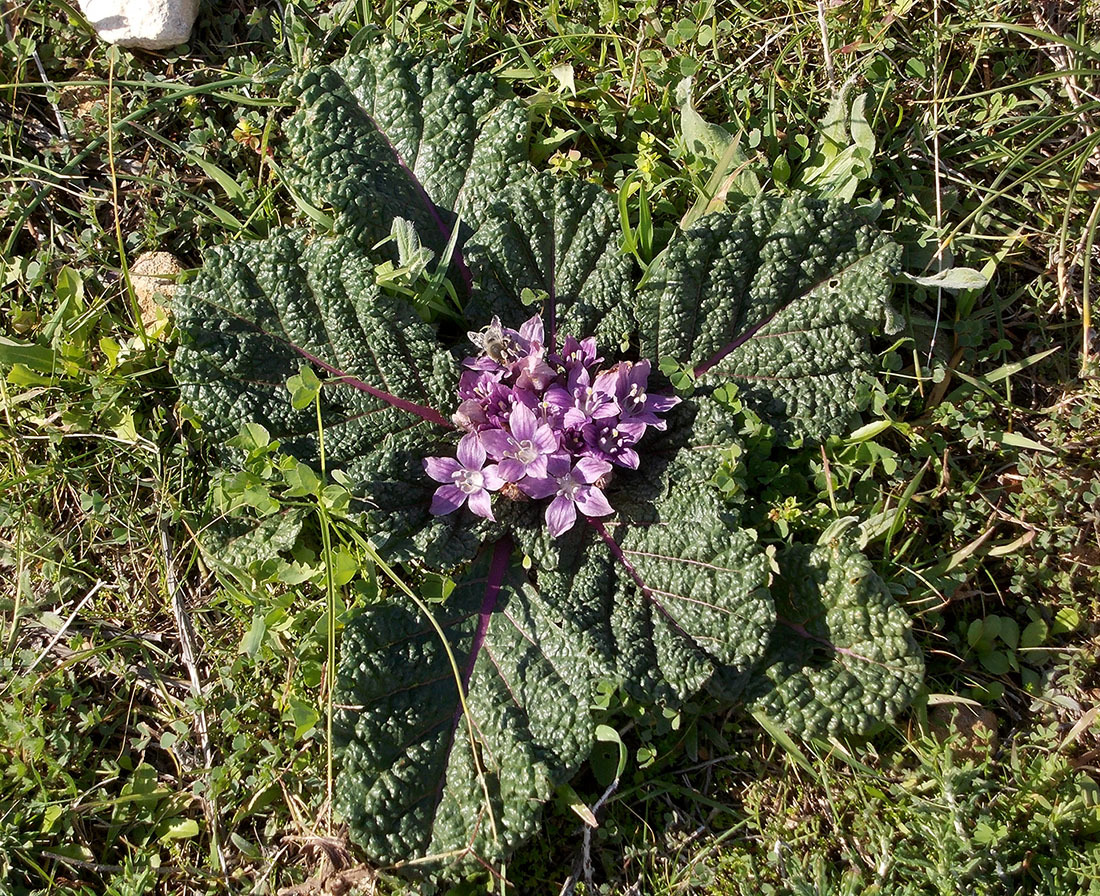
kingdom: Plantae
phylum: Tracheophyta
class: Magnoliopsida
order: Solanales
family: Solanaceae
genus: Mandragora
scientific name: Mandragora officinarum
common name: Mandrake
